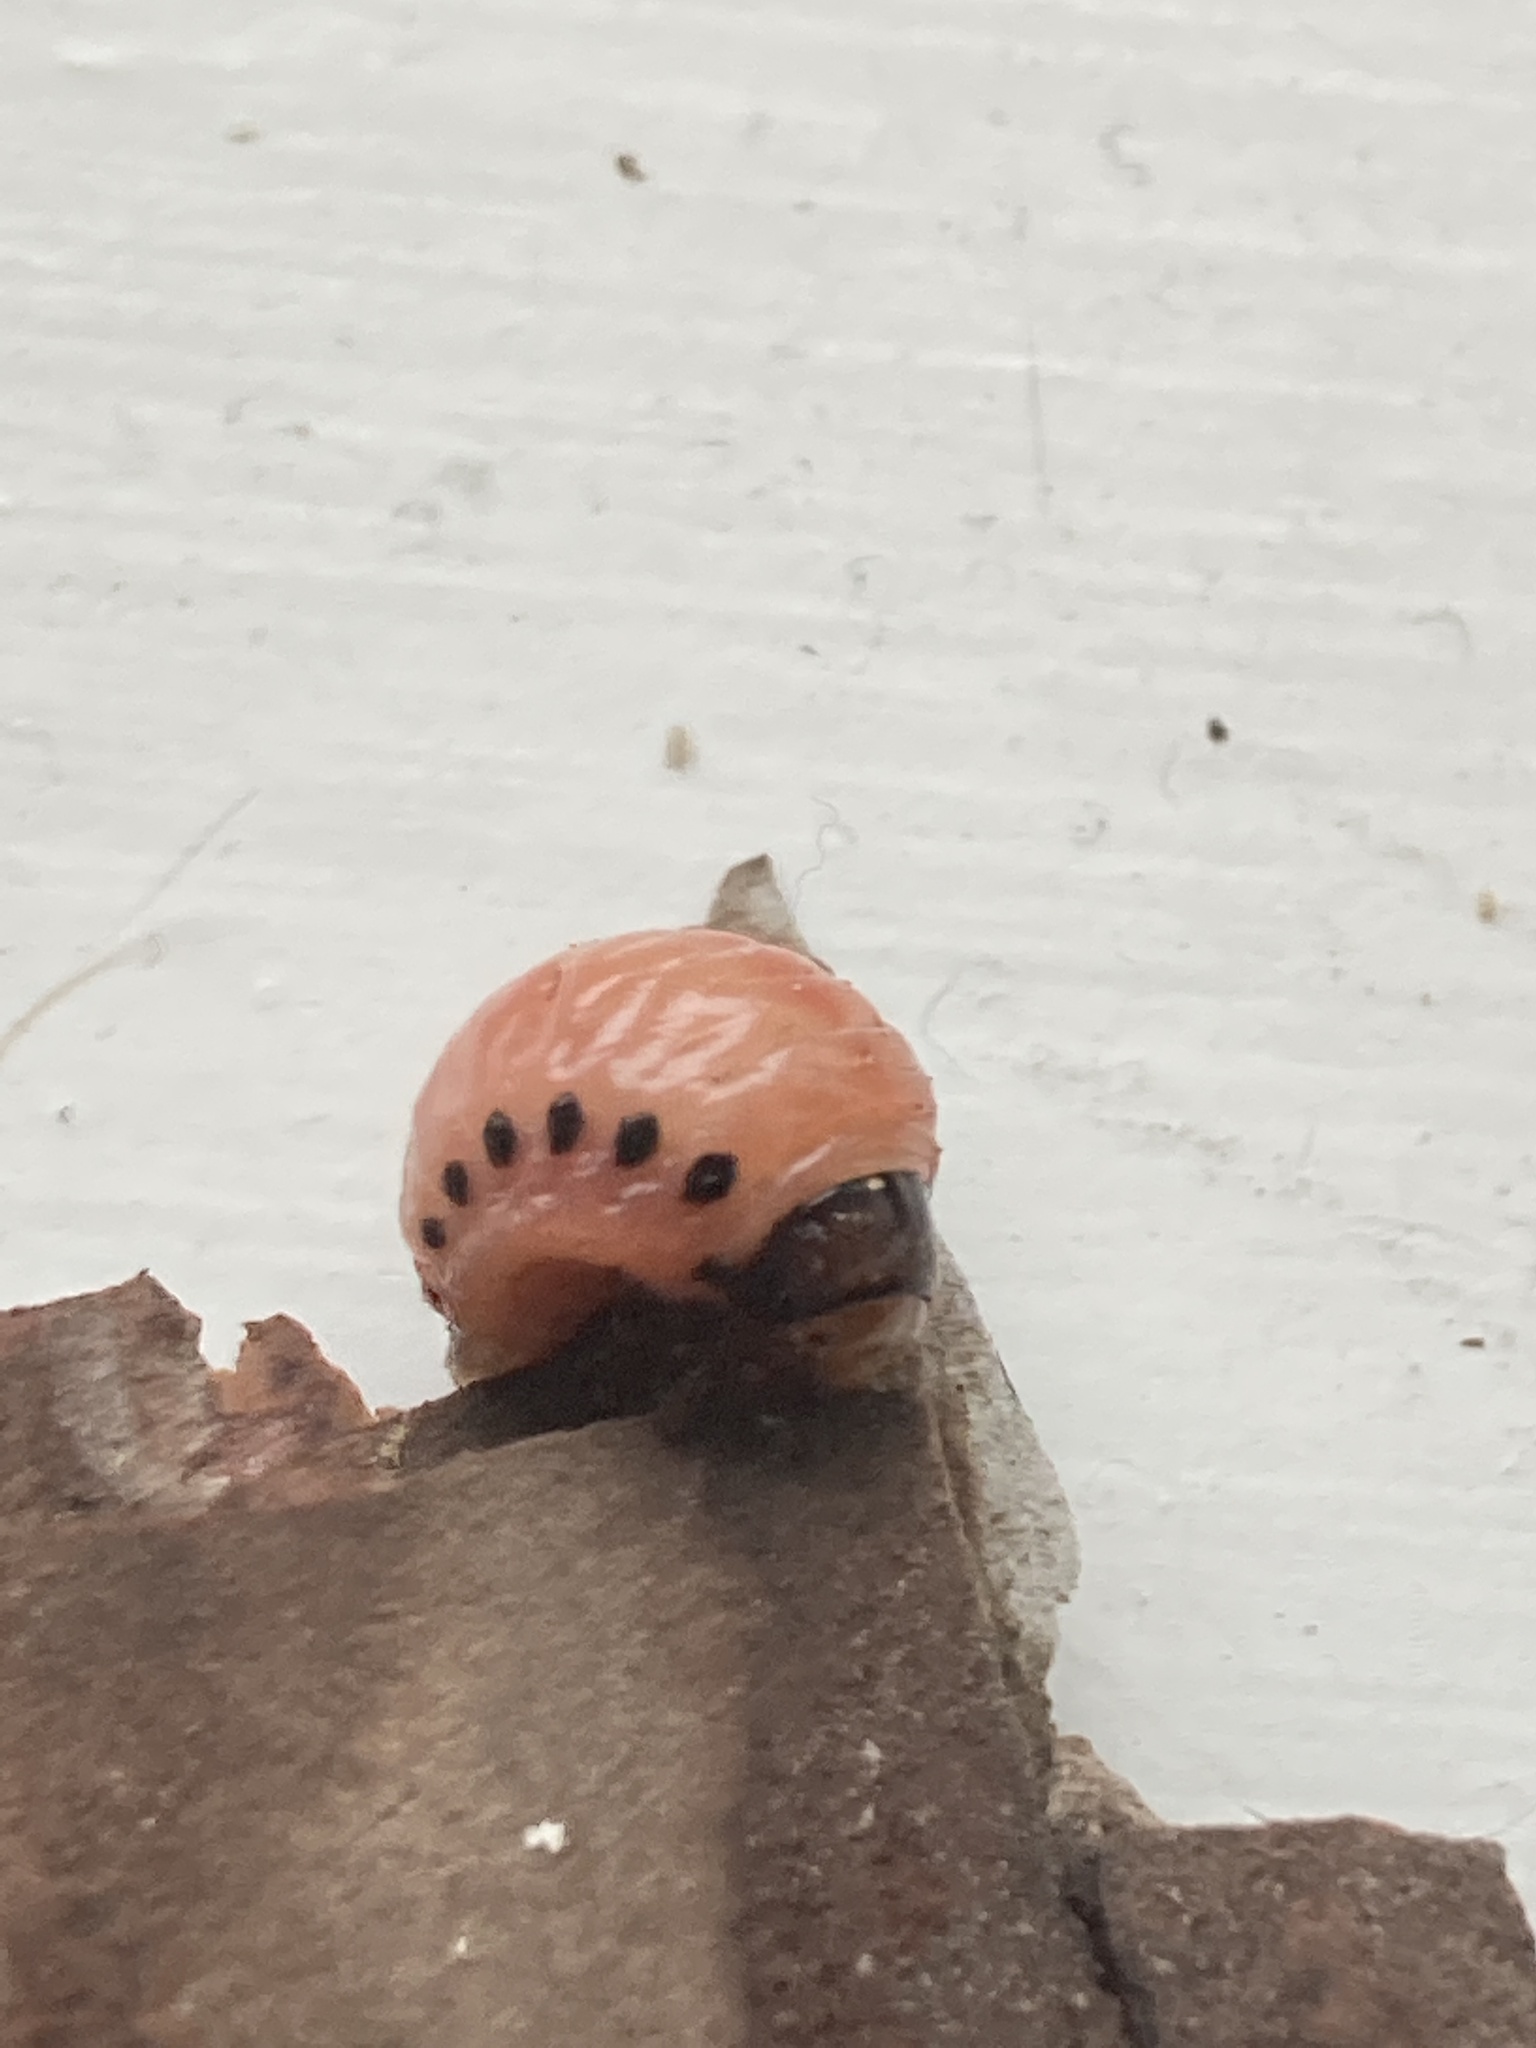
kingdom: Animalia
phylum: Arthropoda
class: Insecta
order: Coleoptera
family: Chrysomelidae
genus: Leptinotarsa
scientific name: Leptinotarsa juncta
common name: False potato beetle
